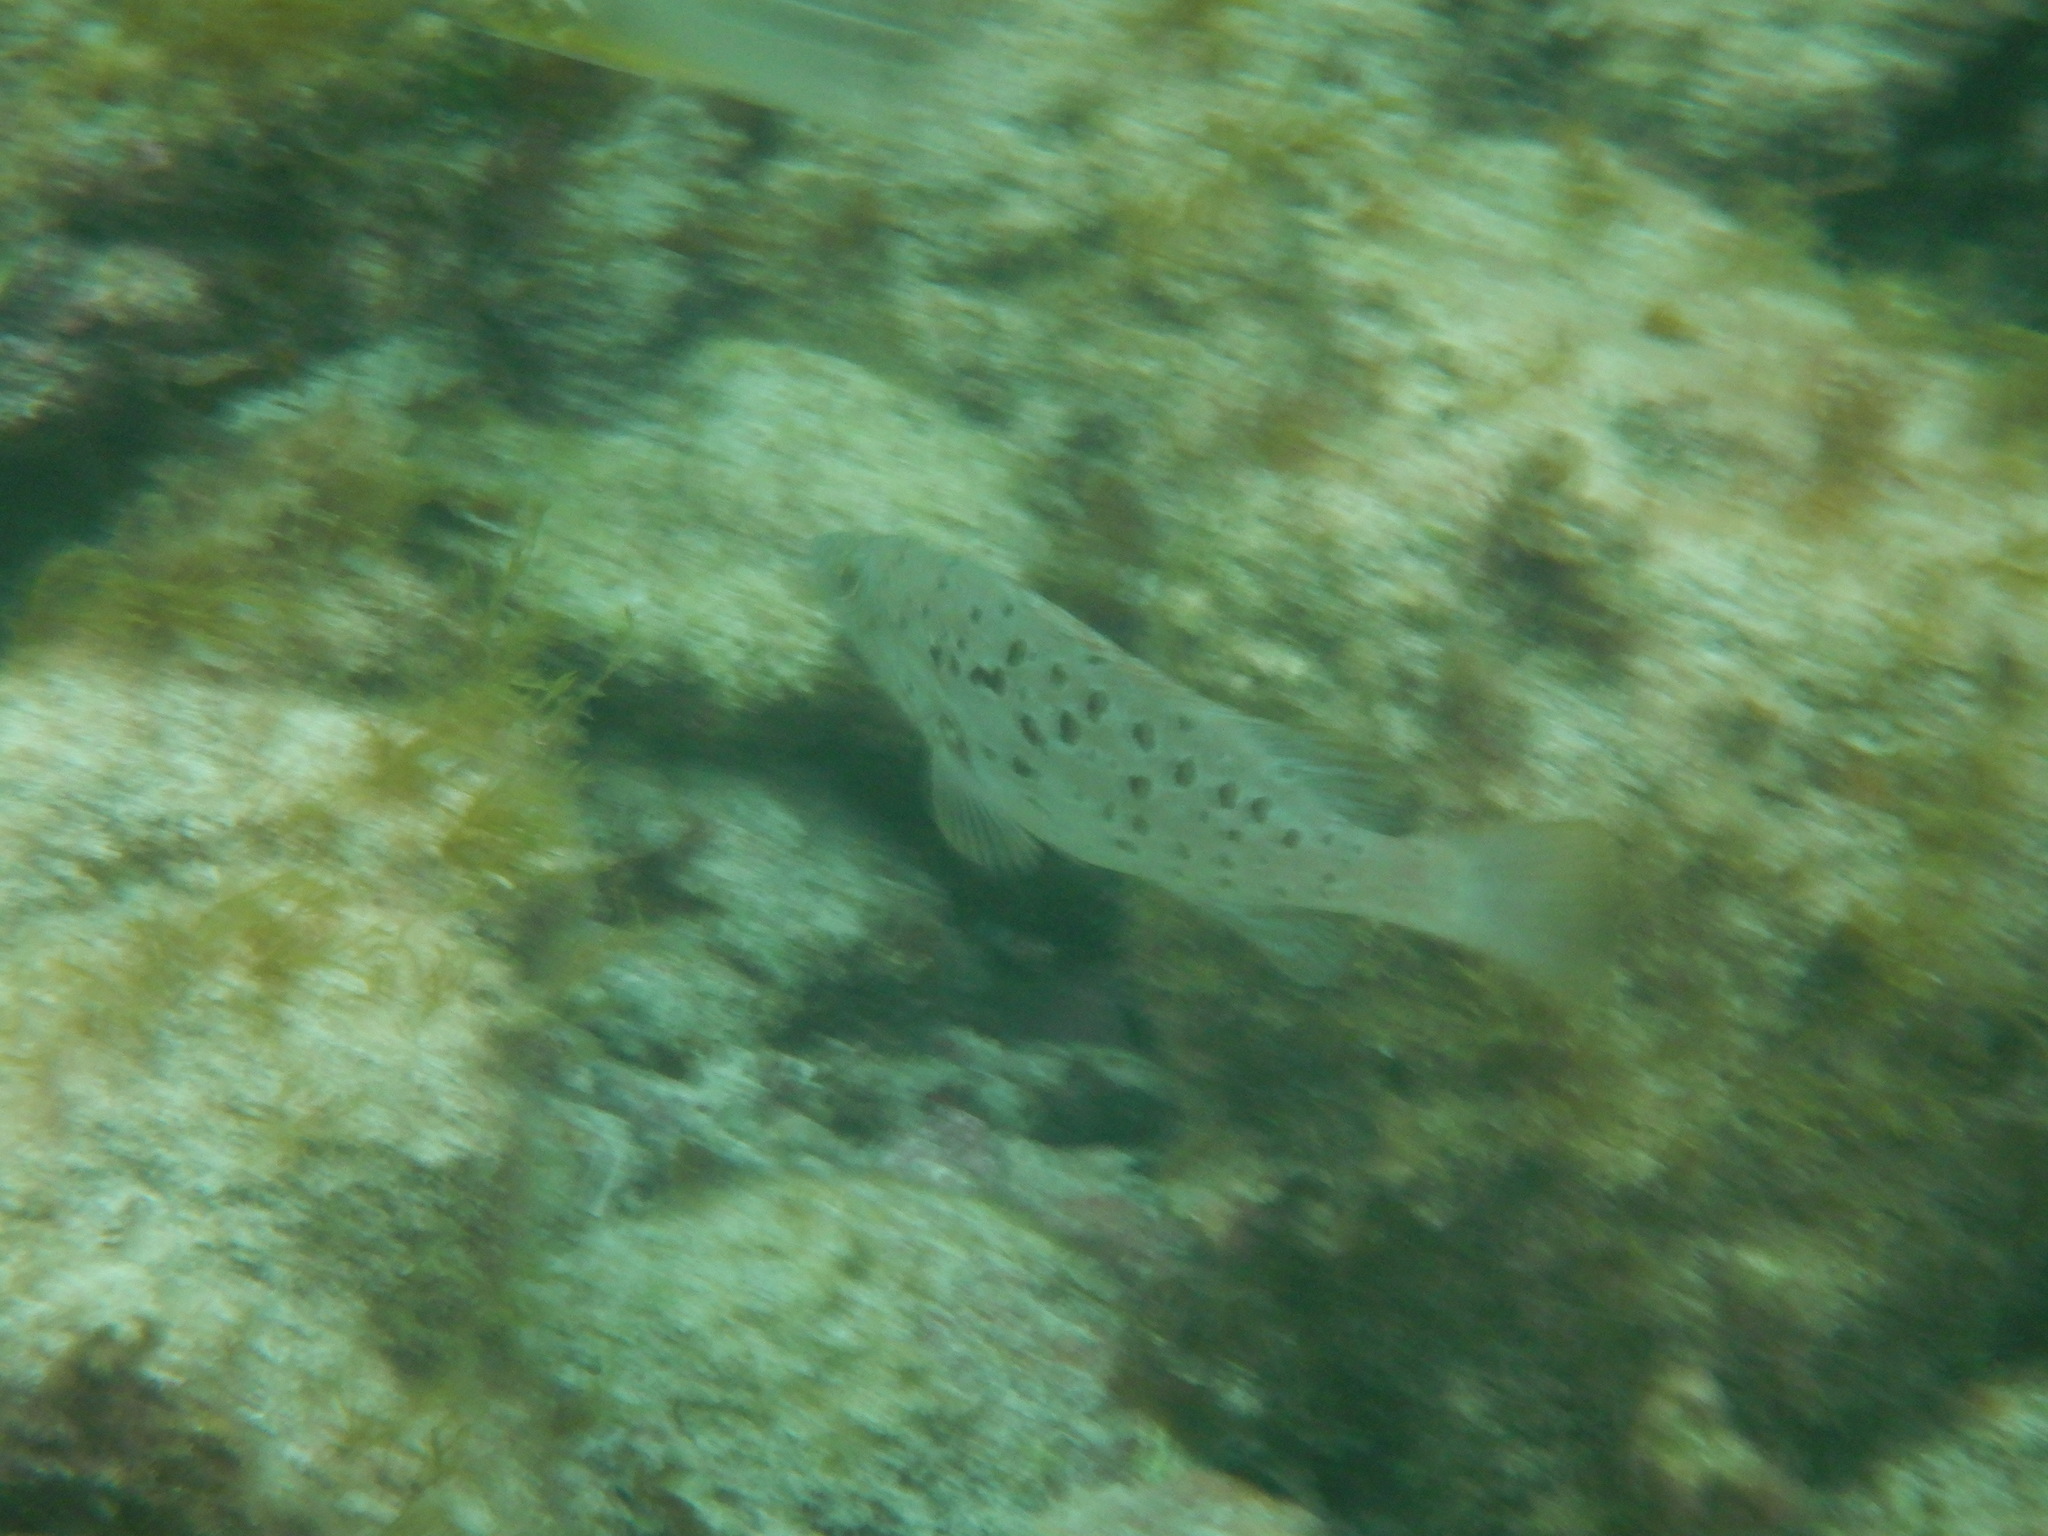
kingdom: Animalia
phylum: Chordata
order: Perciformes
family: Serranidae
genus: Mycteroperca
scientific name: Mycteroperca fusca
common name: Island grouper
